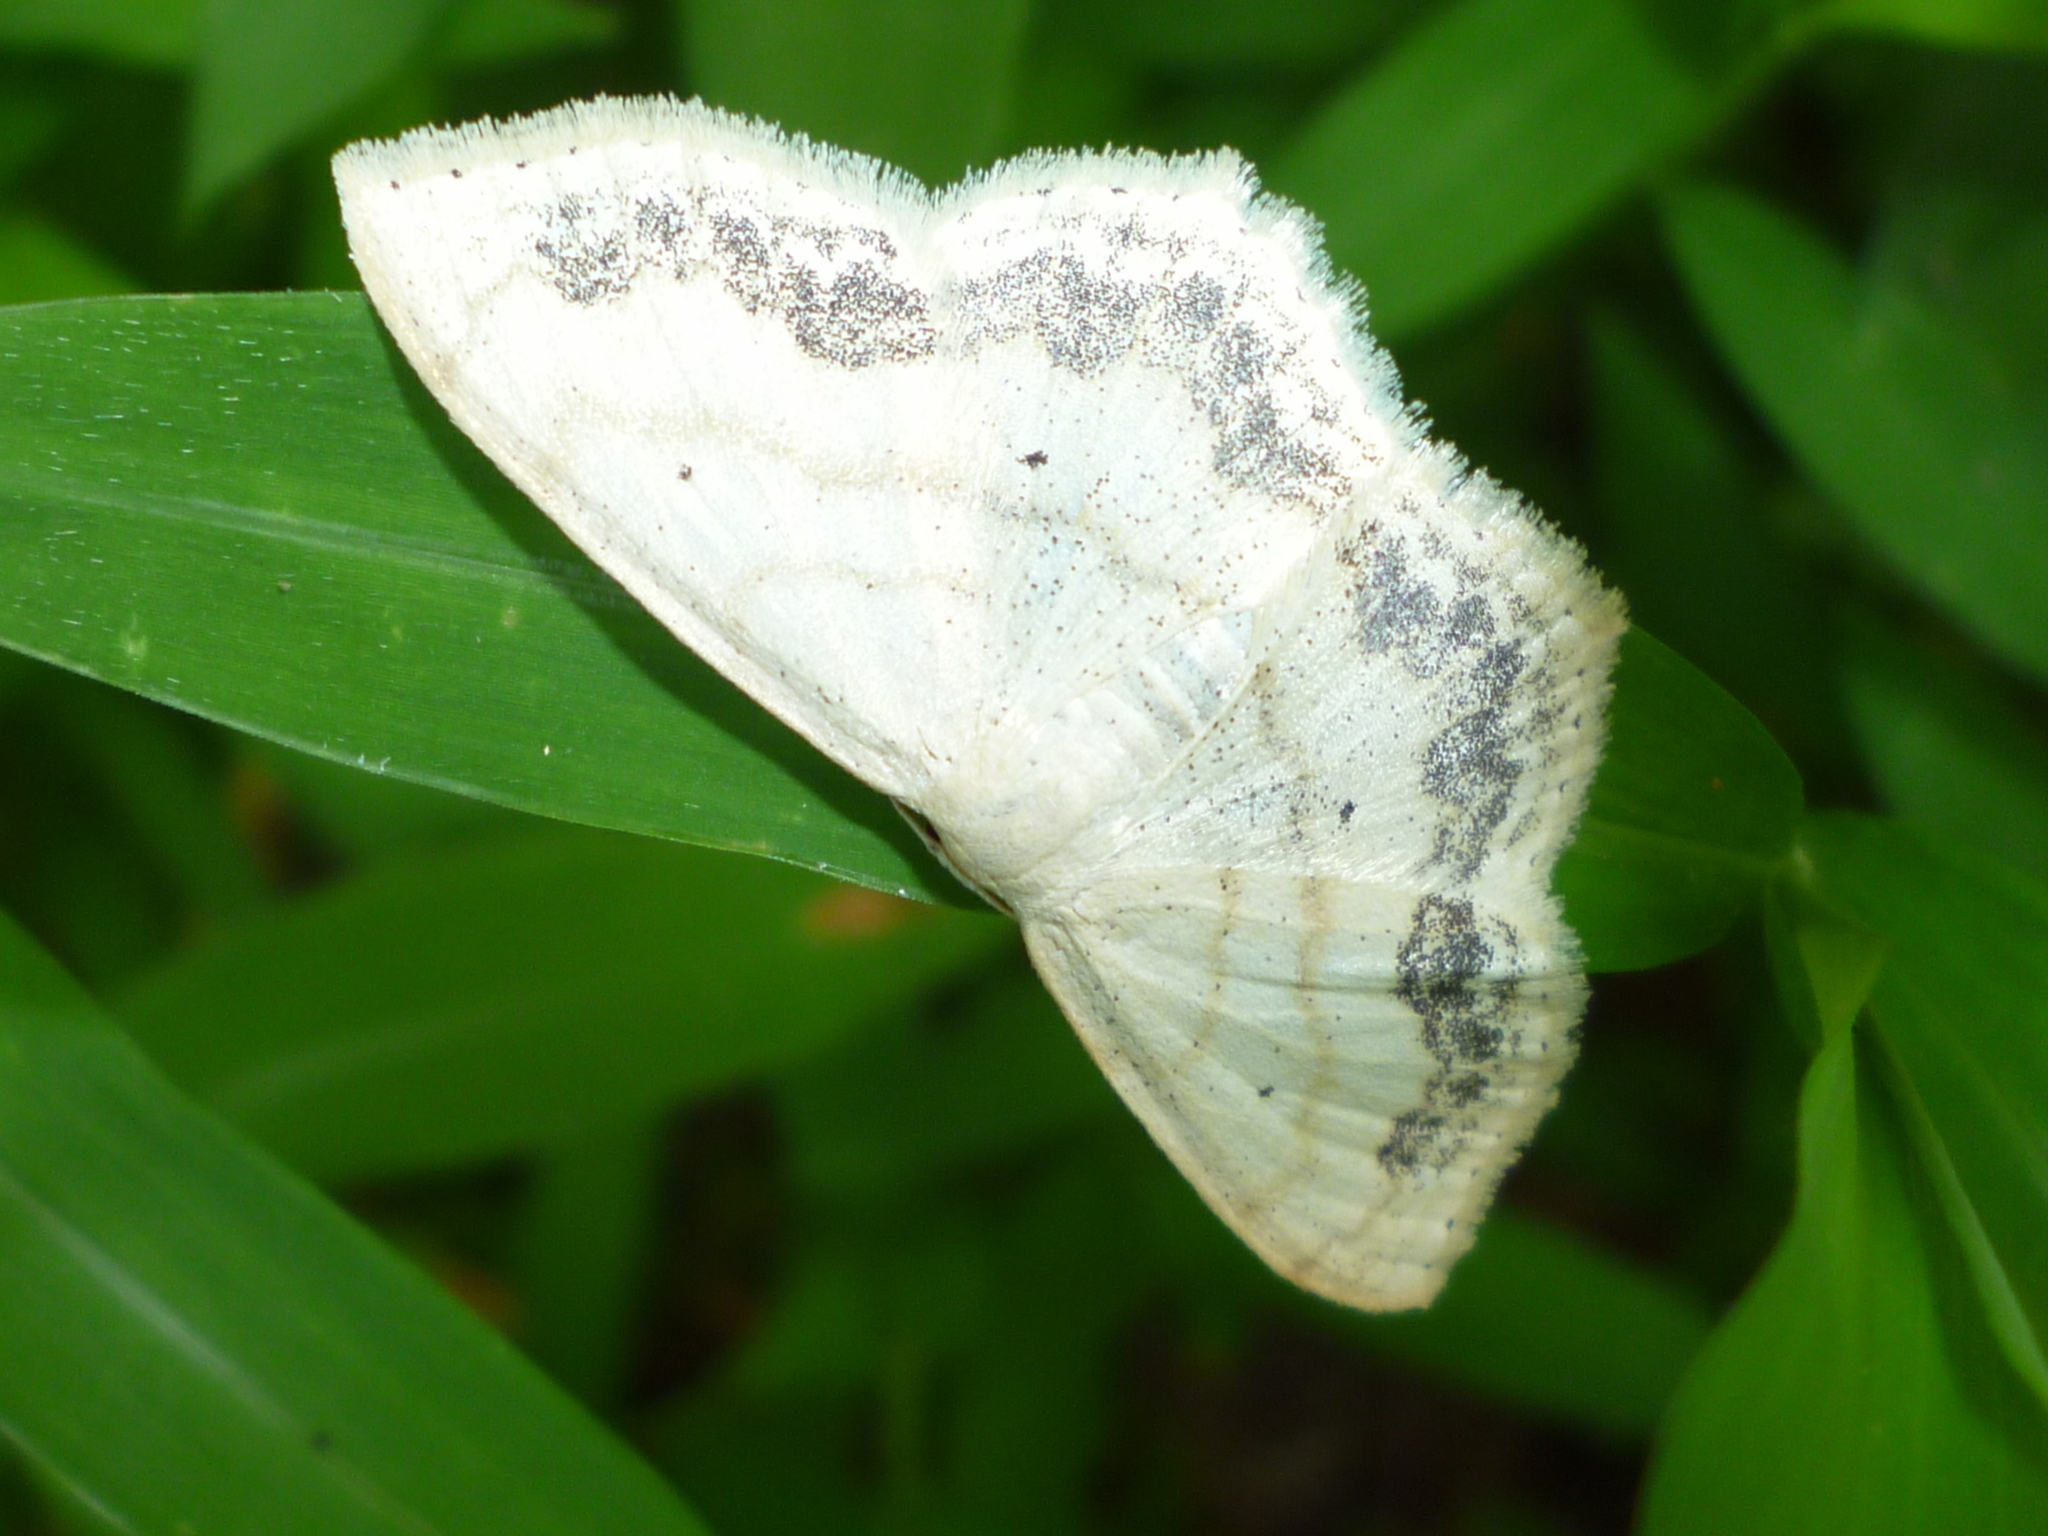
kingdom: Animalia
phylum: Arthropoda
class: Insecta
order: Lepidoptera
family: Geometridae
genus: Scopula
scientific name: Scopula limboundata
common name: Large lace border
